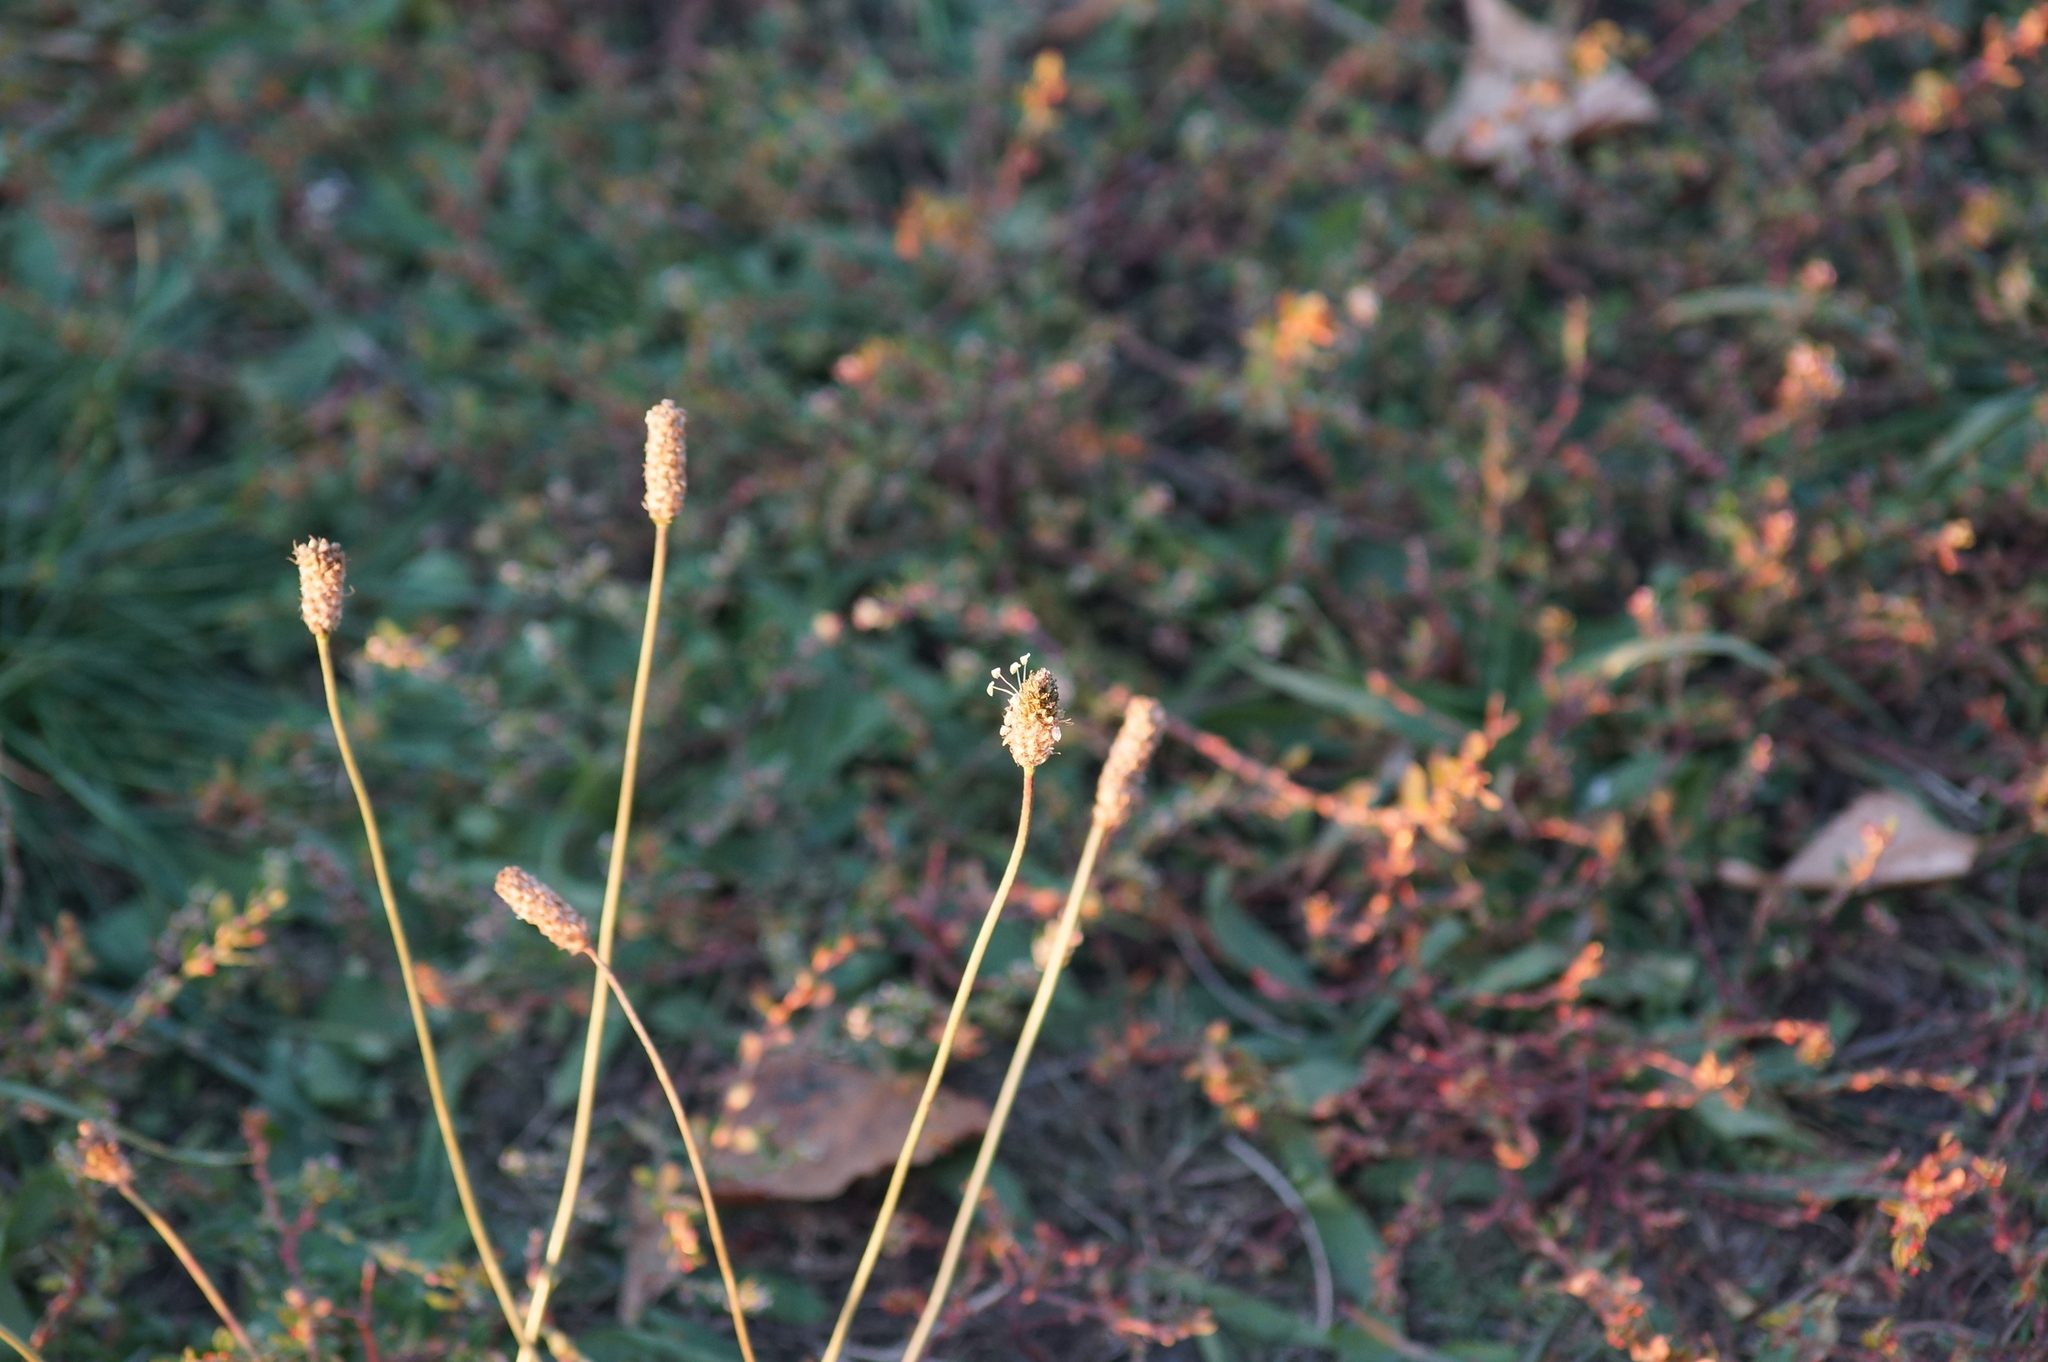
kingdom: Plantae
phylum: Tracheophyta
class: Magnoliopsida
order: Lamiales
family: Plantaginaceae
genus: Plantago
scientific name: Plantago lanceolata
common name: Ribwort plantain
